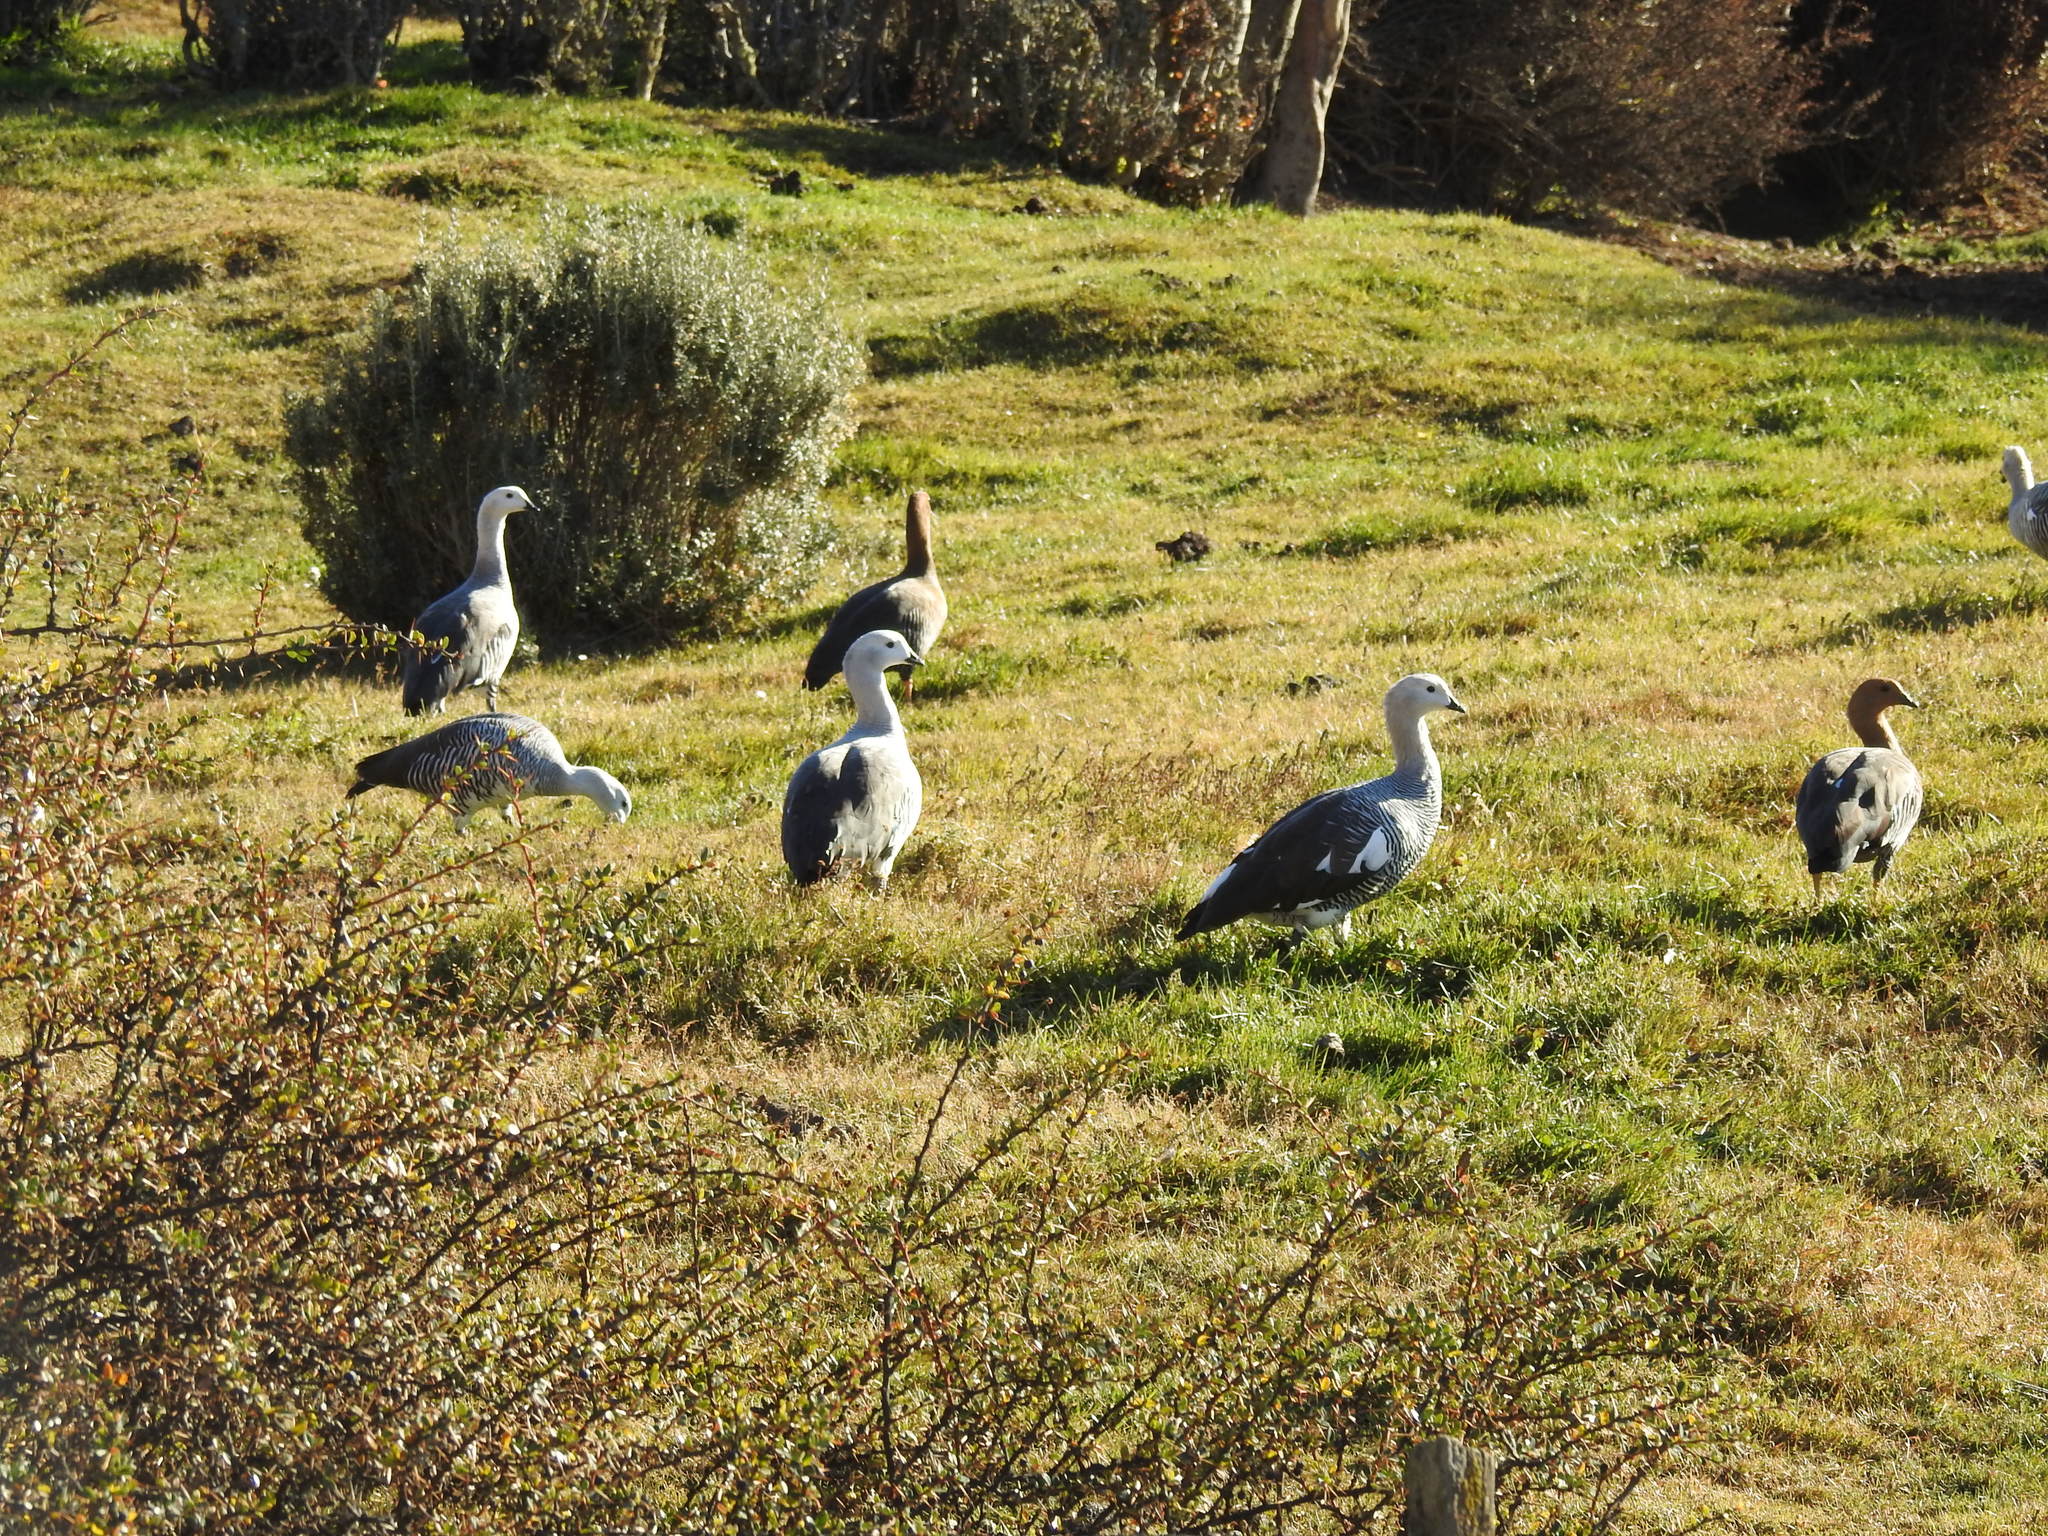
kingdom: Animalia
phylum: Chordata
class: Aves
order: Anseriformes
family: Anatidae
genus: Chloephaga
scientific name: Chloephaga picta
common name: Upland goose
